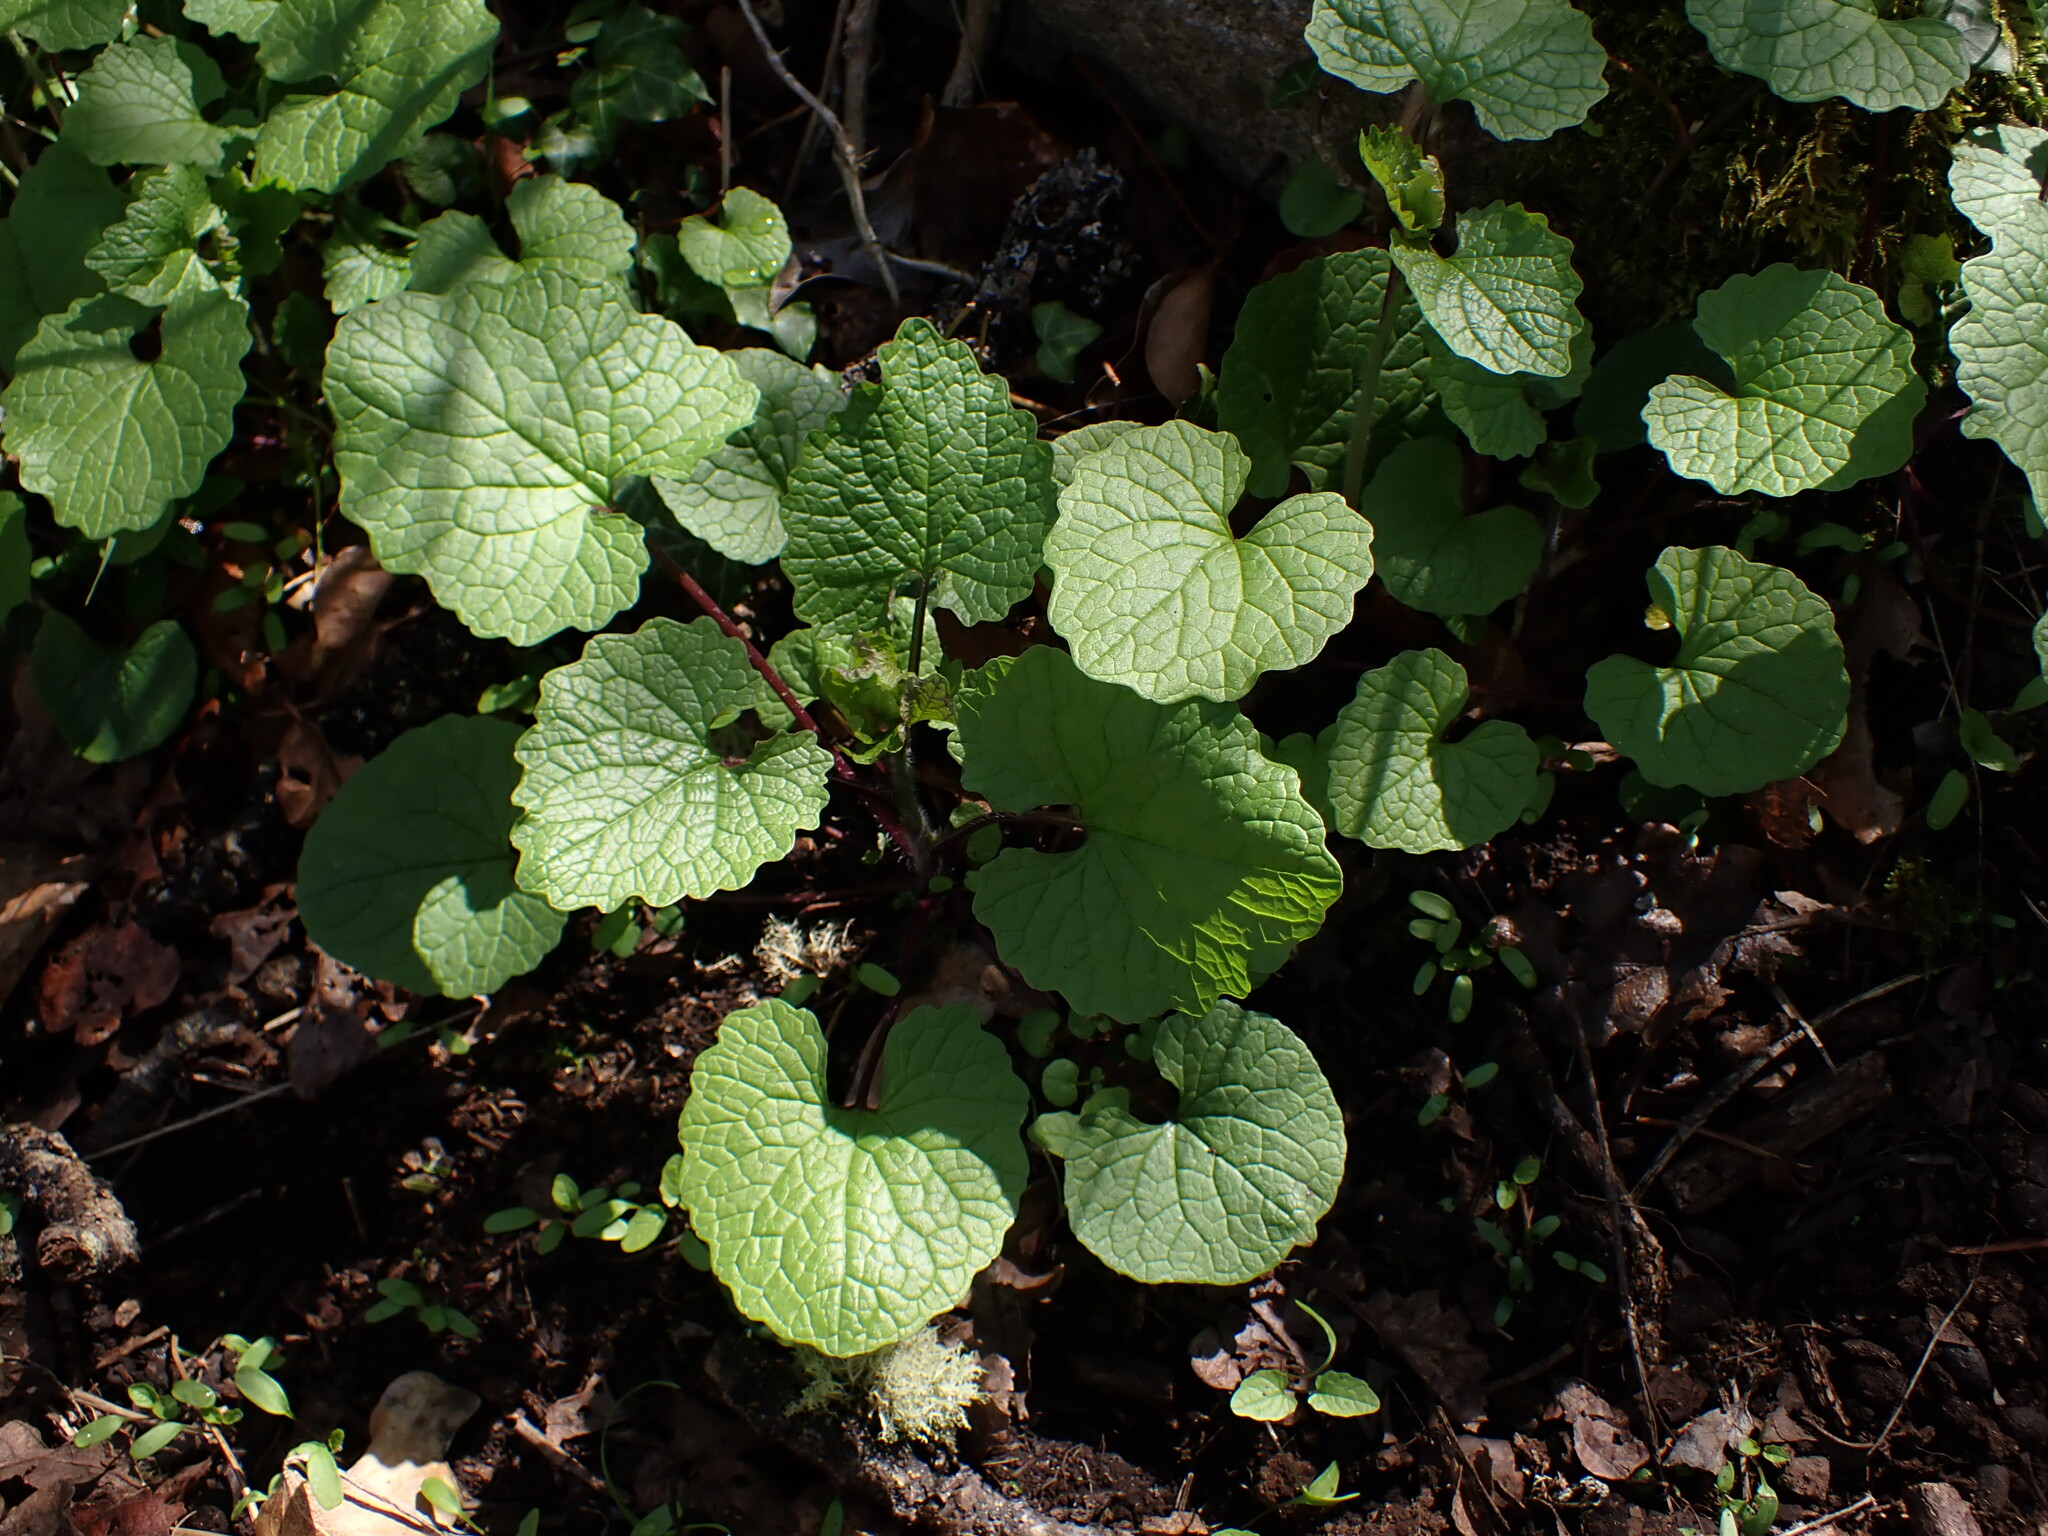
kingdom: Plantae
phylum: Tracheophyta
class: Magnoliopsida
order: Brassicales
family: Brassicaceae
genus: Alliaria
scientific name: Alliaria petiolata
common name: Garlic mustard
